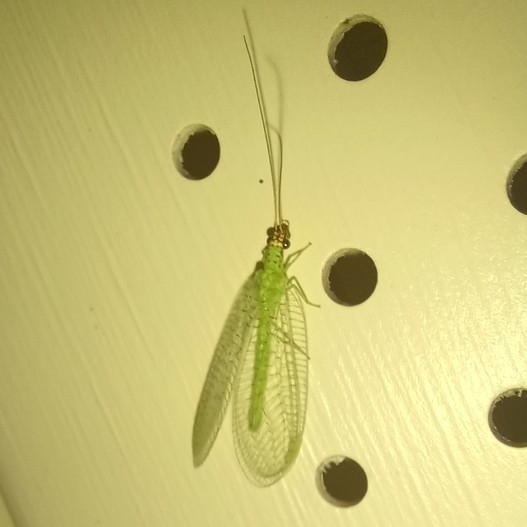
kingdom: Animalia
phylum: Arthropoda
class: Insecta
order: Neuroptera
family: Chrysopidae
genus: Chrysopa
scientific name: Chrysopa oculata
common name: Golden-eyed lacewing
